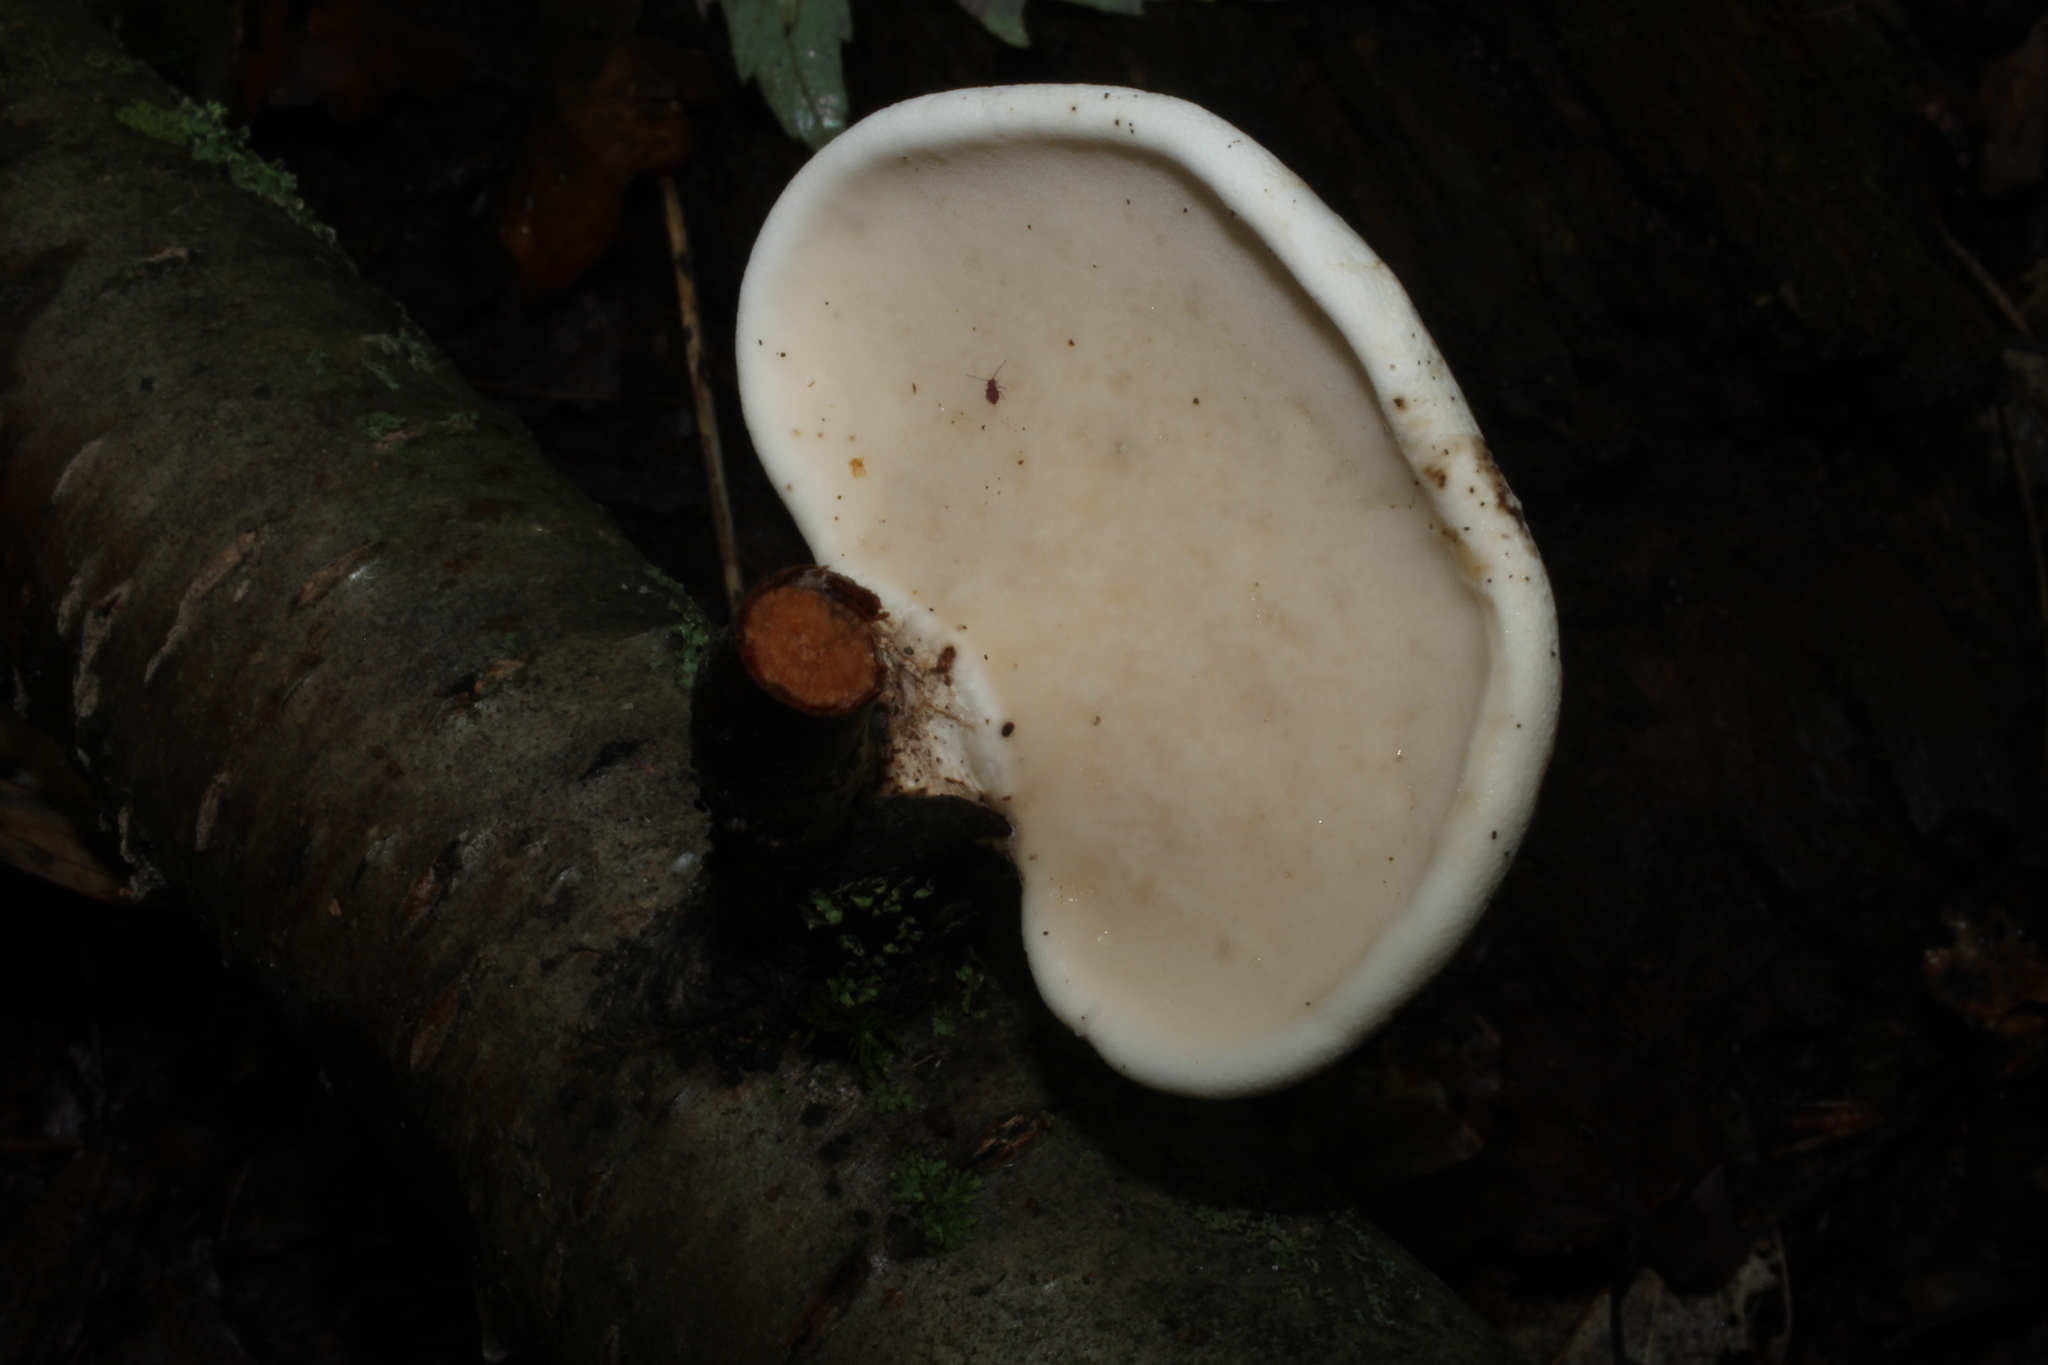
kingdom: Fungi
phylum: Basidiomycota
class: Agaricomycetes
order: Polyporales
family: Fomitopsidaceae
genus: Fomitopsis
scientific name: Fomitopsis betulina
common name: Birch polypore
